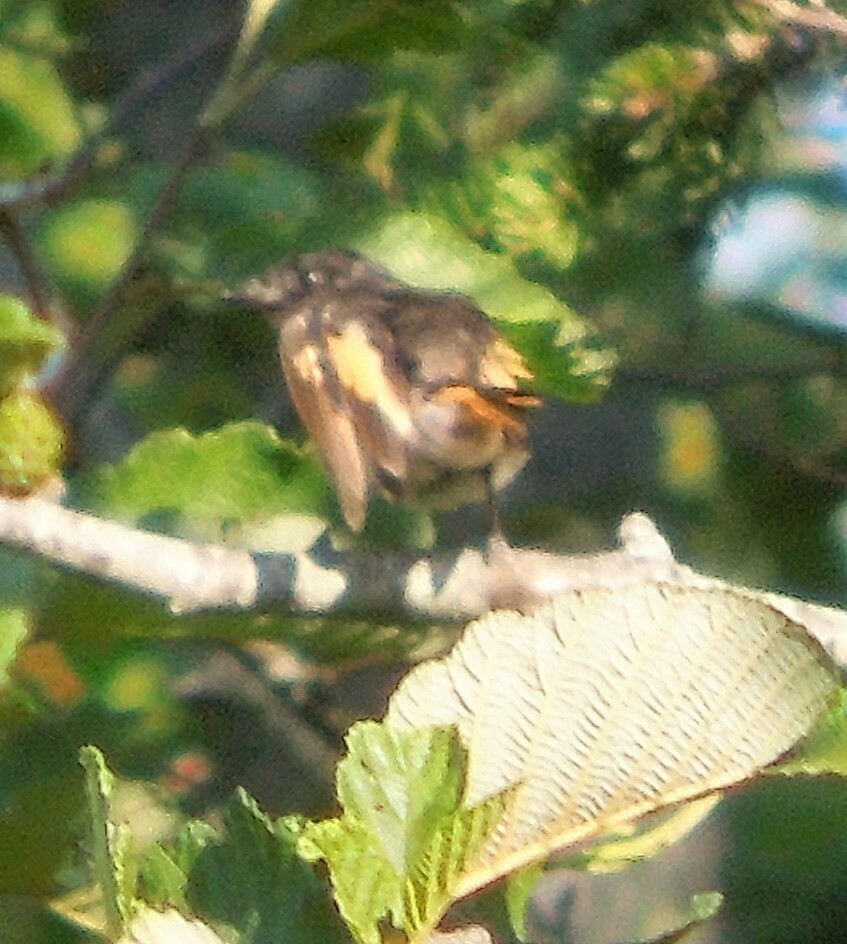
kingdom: Animalia
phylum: Chordata
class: Aves
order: Passeriformes
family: Parulidae
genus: Setophaga
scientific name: Setophaga ruticilla
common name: American redstart
